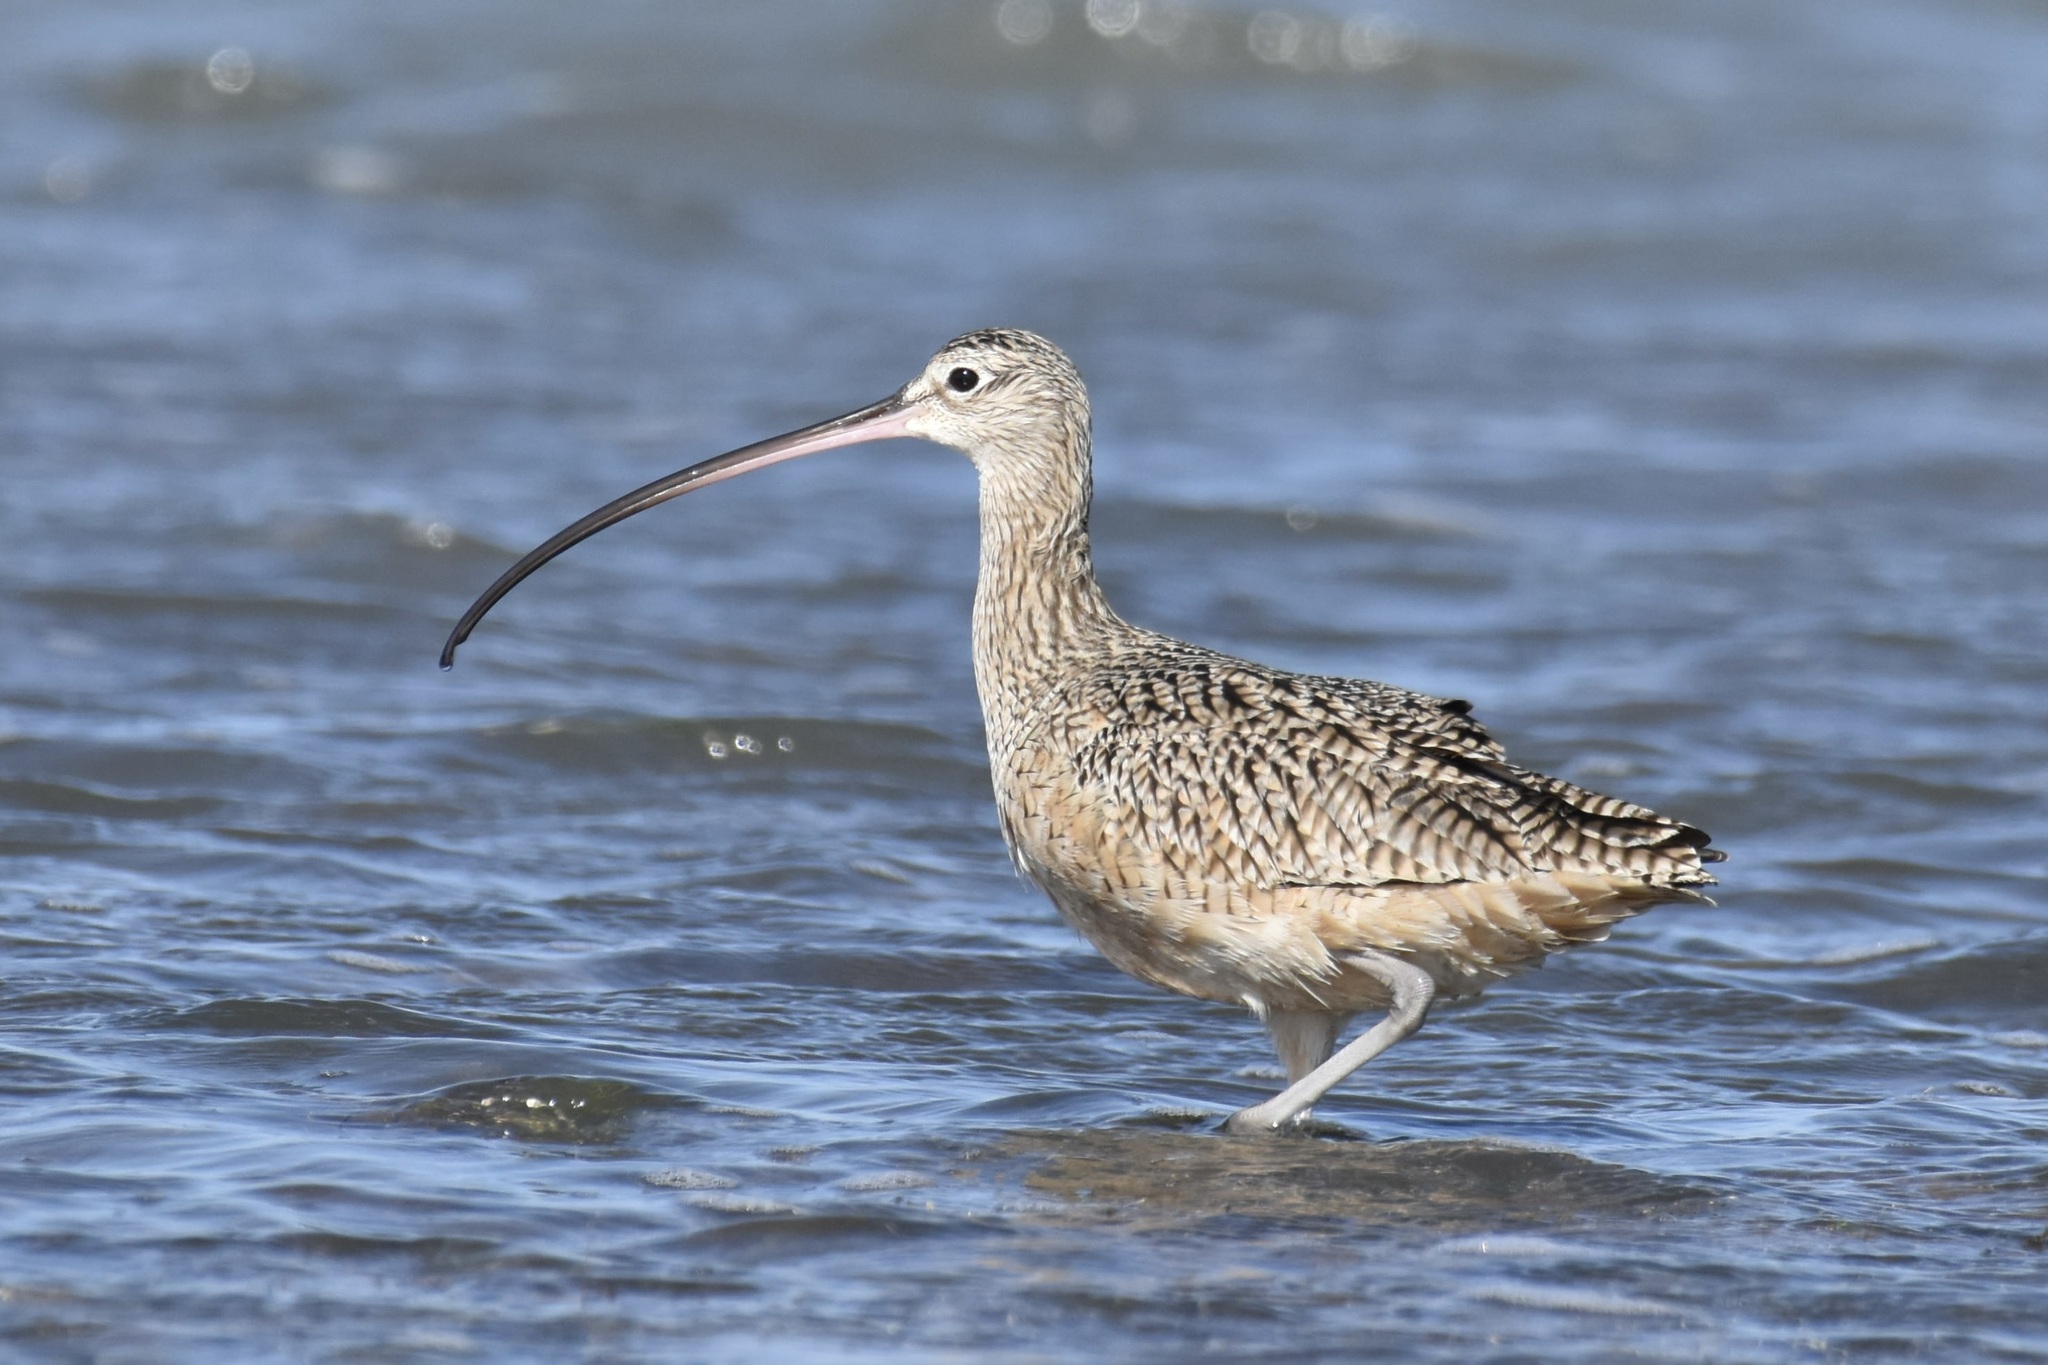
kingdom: Animalia
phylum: Chordata
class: Aves
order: Charadriiformes
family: Scolopacidae
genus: Numenius
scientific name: Numenius americanus
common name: Long-billed curlew
